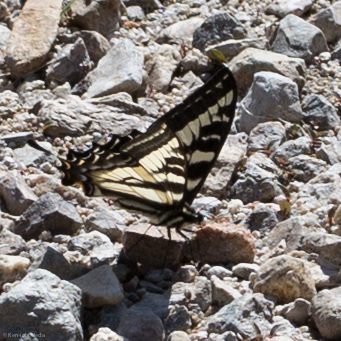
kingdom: Animalia
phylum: Arthropoda
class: Insecta
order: Lepidoptera
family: Papilionidae
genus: Papilio
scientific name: Papilio eurymedon
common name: Pale tiger swallowtail
